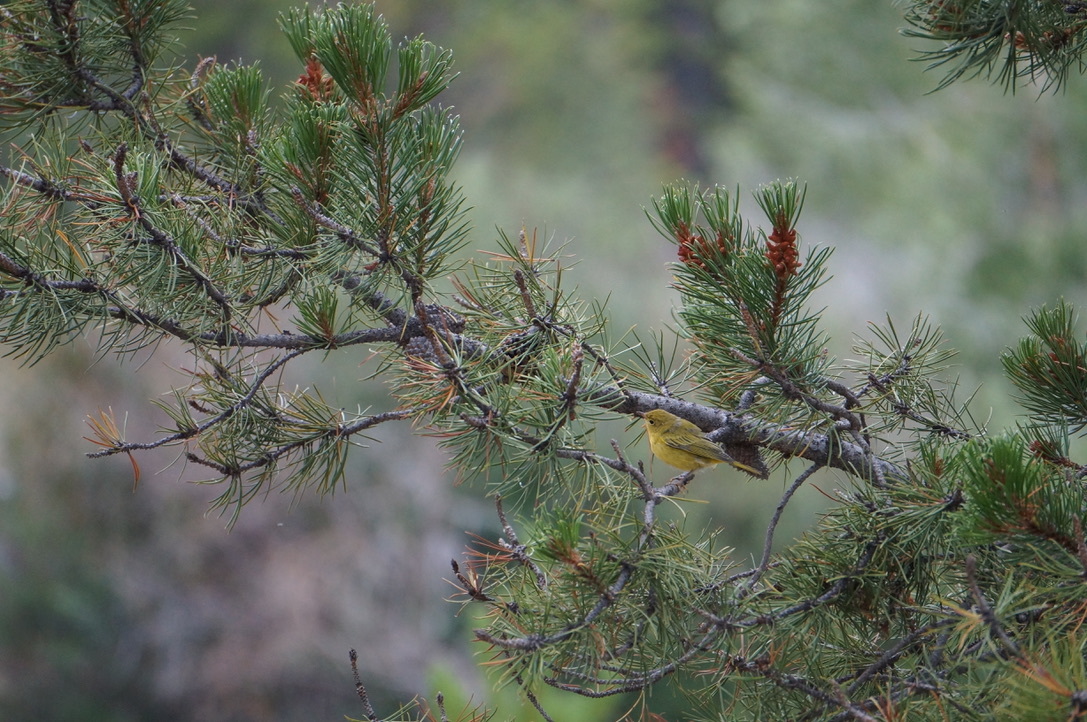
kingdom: Animalia
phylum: Chordata
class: Aves
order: Passeriformes
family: Parulidae
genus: Setophaga
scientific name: Setophaga petechia
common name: Yellow warbler
